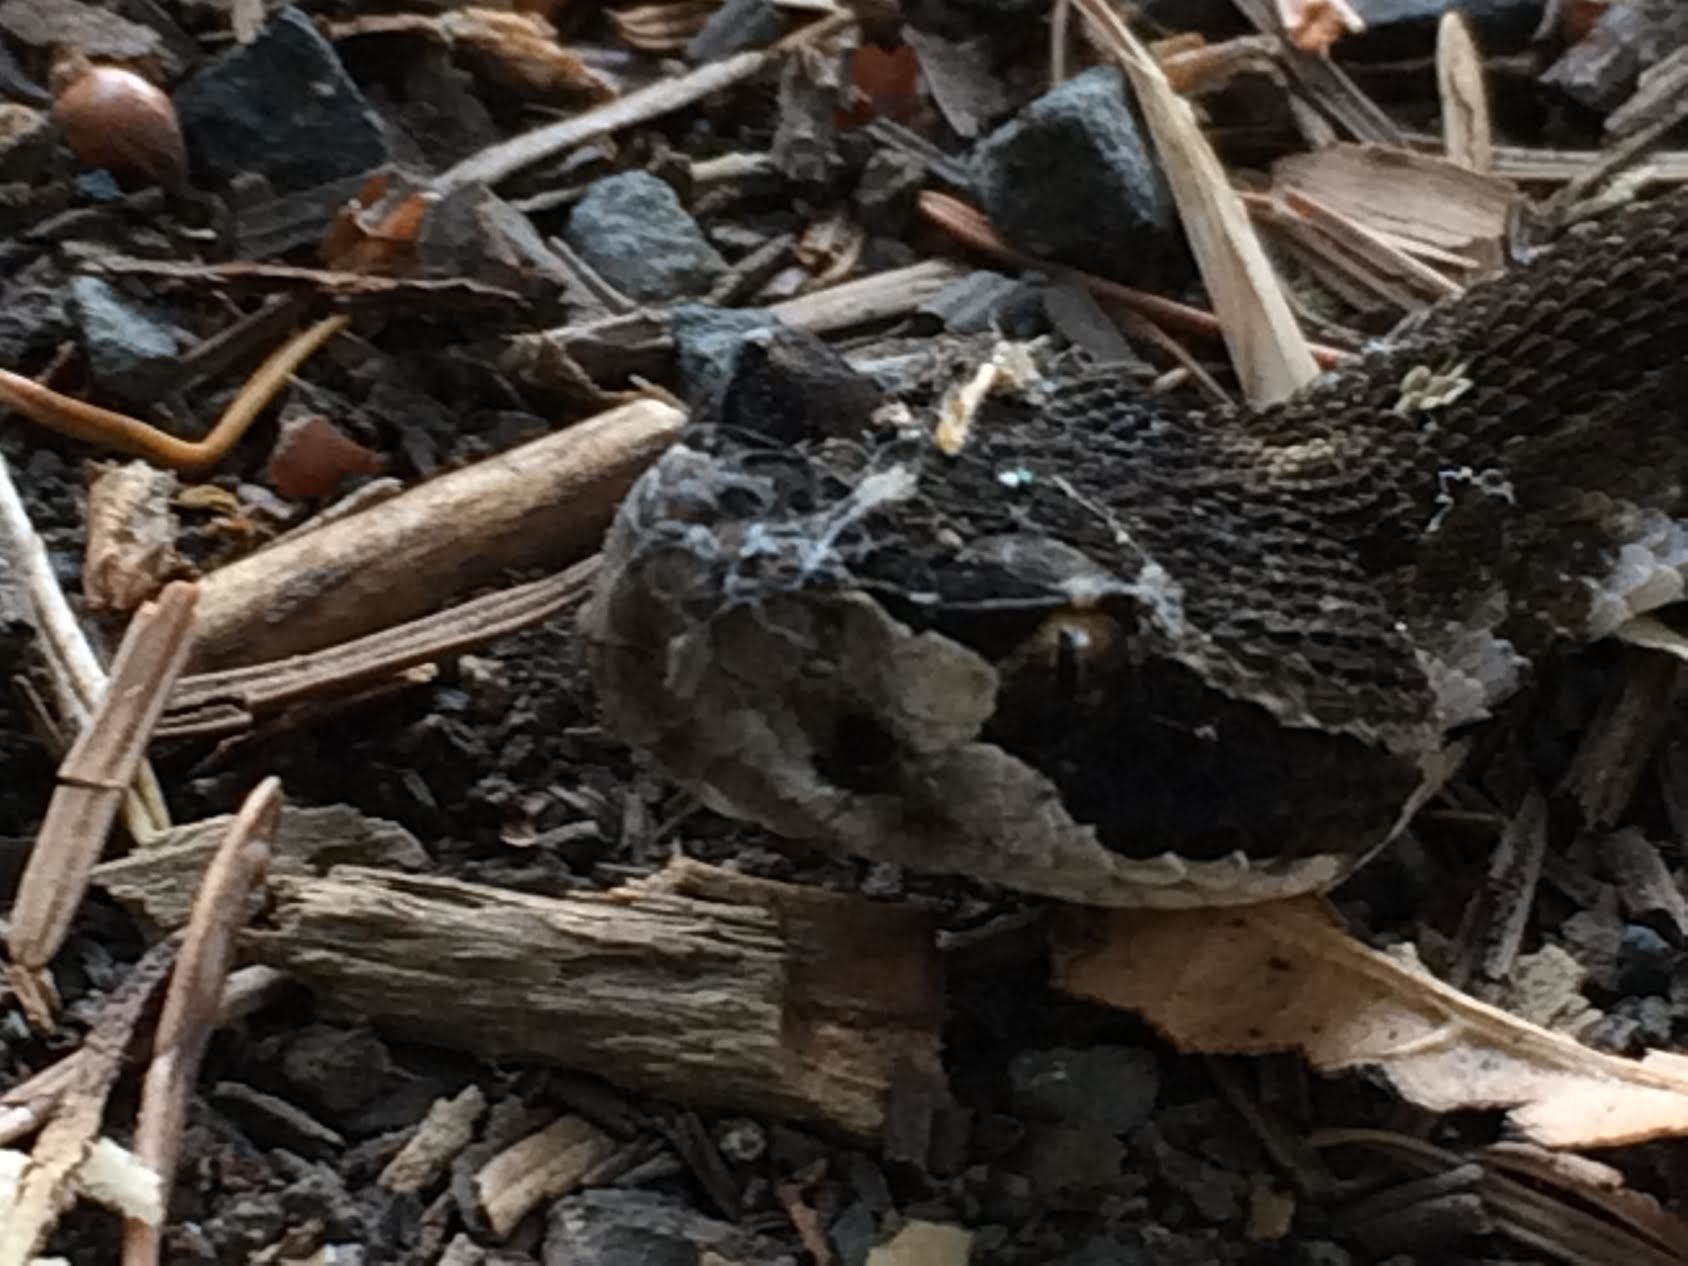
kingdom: Animalia
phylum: Chordata
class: Squamata
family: Viperidae
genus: Crotalus
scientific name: Crotalus oreganus
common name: Abyssus
